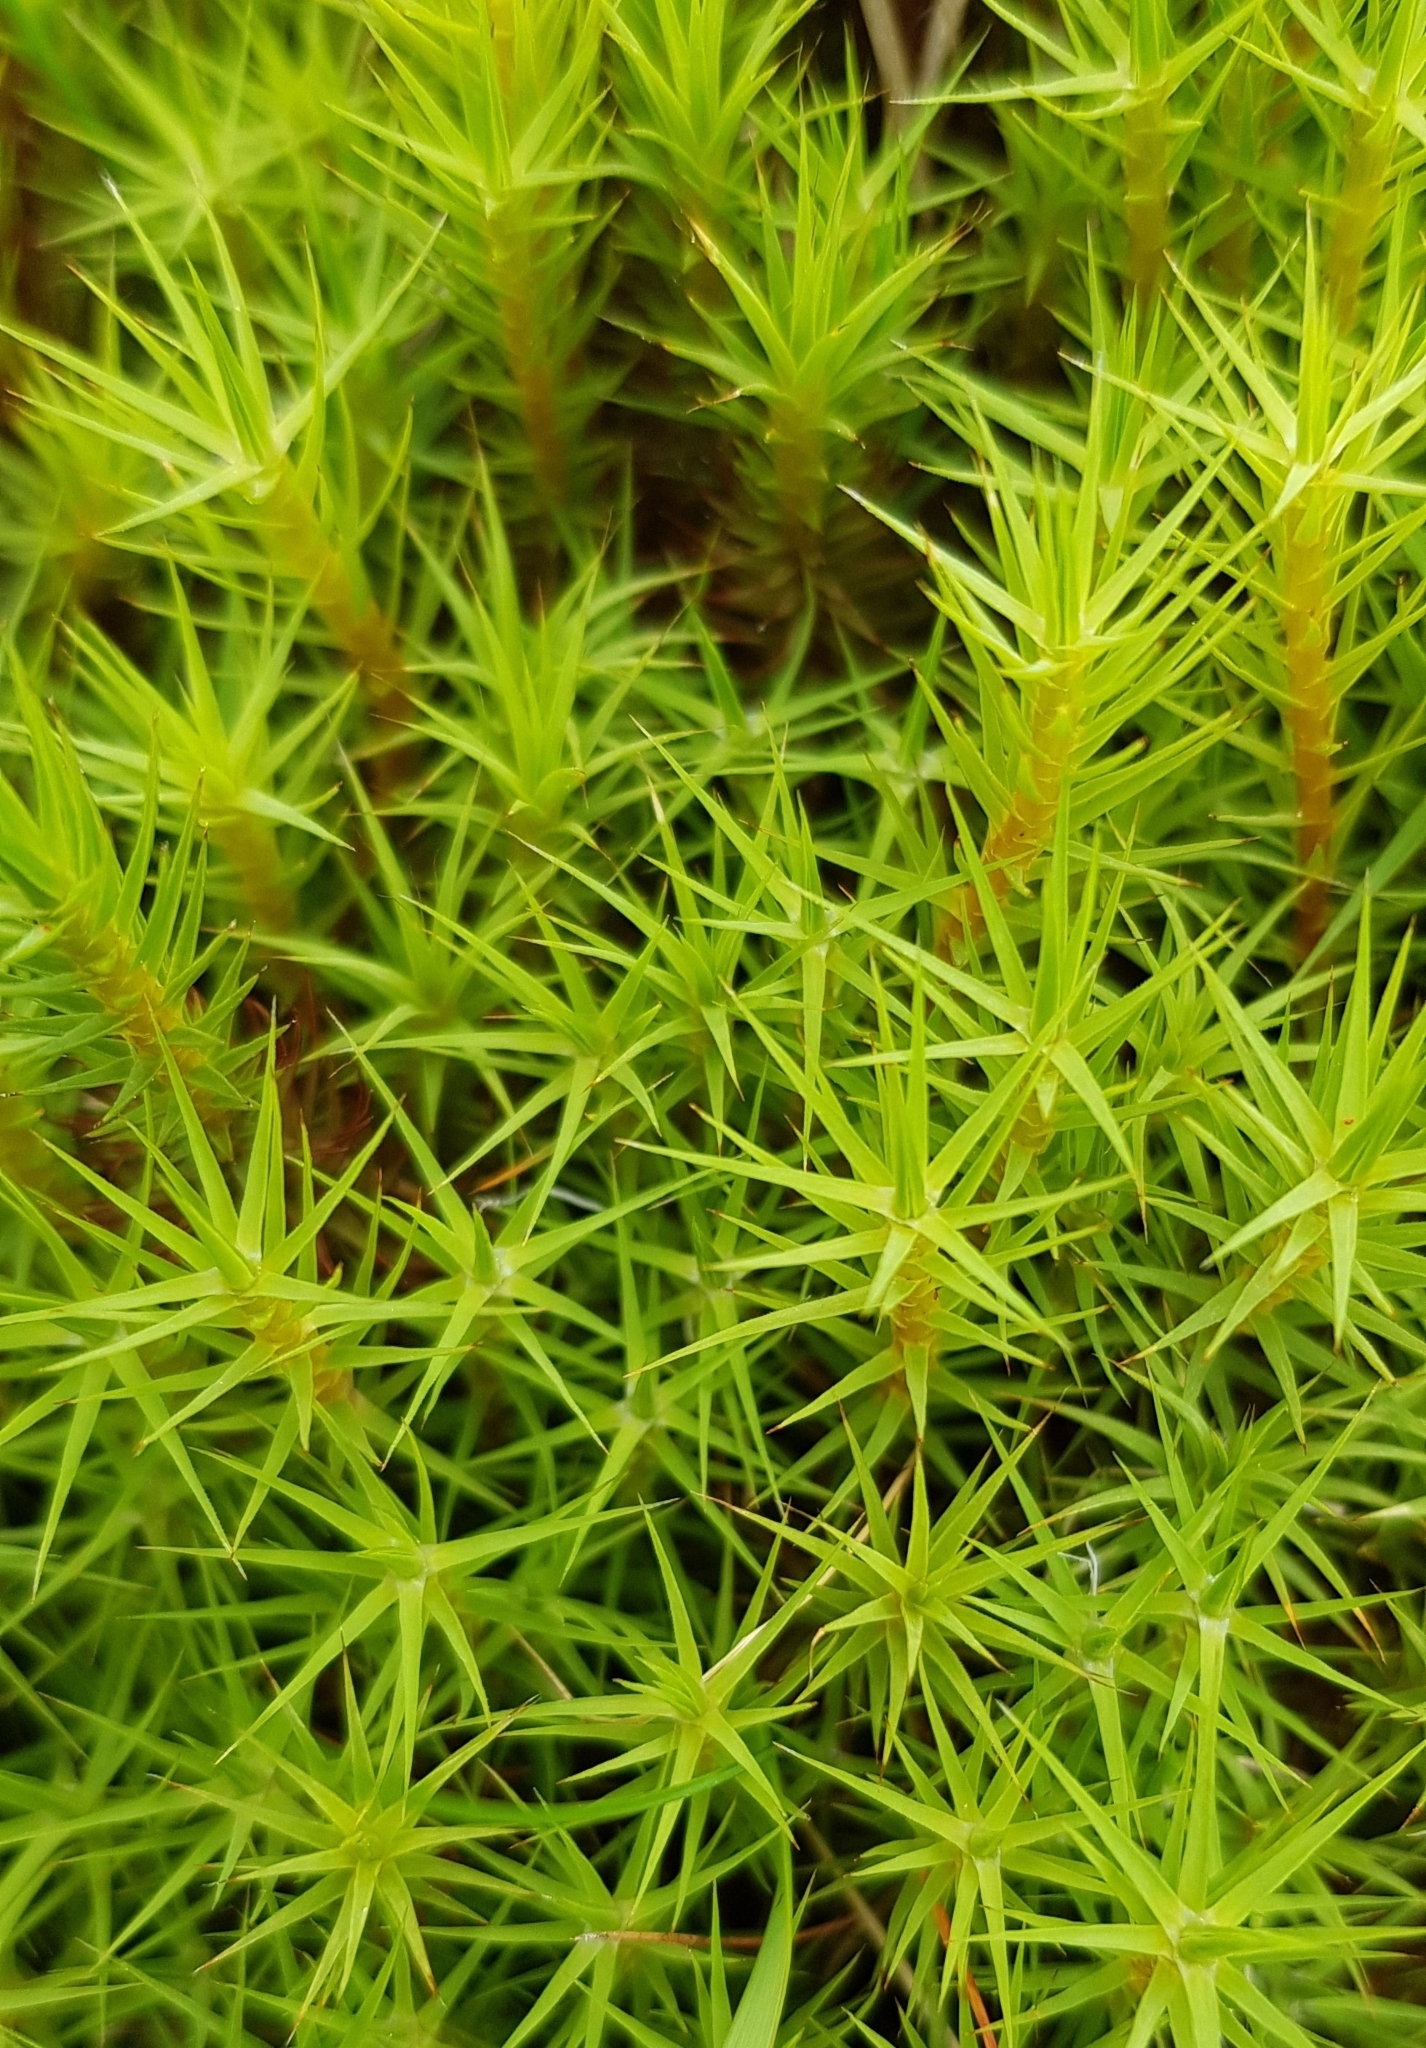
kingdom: Plantae
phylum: Bryophyta
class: Polytrichopsida
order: Polytrichales
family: Polytrichaceae
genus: Polytrichum
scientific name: Polytrichum commune
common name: Common haircap
